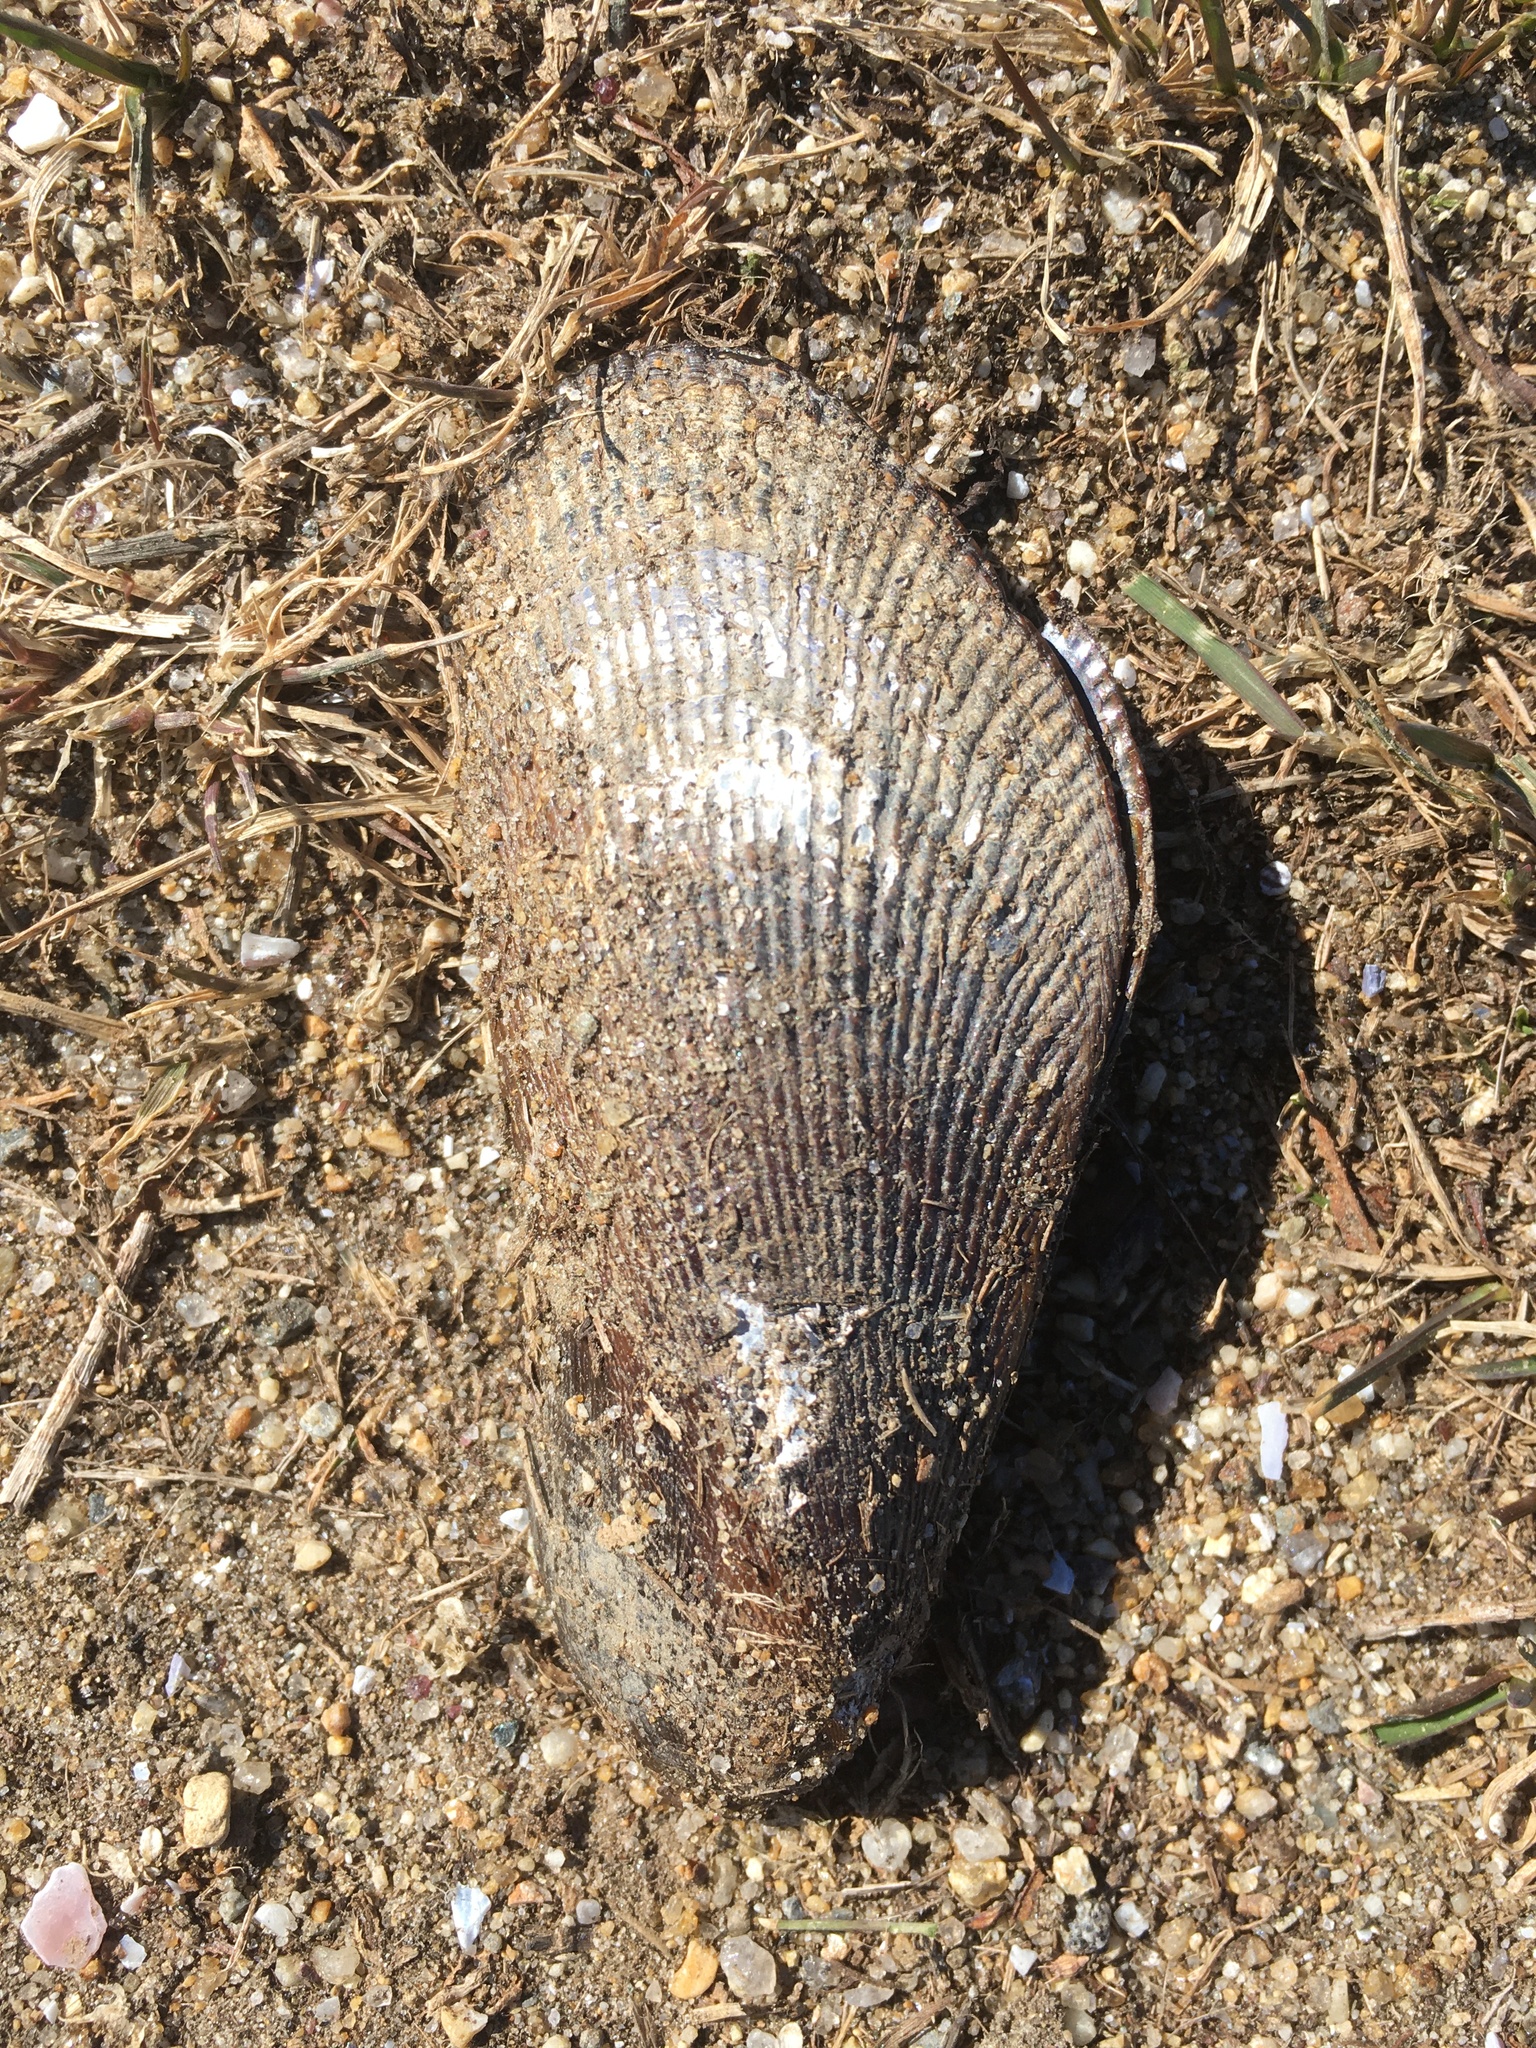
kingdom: Animalia
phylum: Mollusca
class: Bivalvia
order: Mytilida
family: Mytilidae
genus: Geukensia
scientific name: Geukensia demissa
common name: Ribbed mussel
